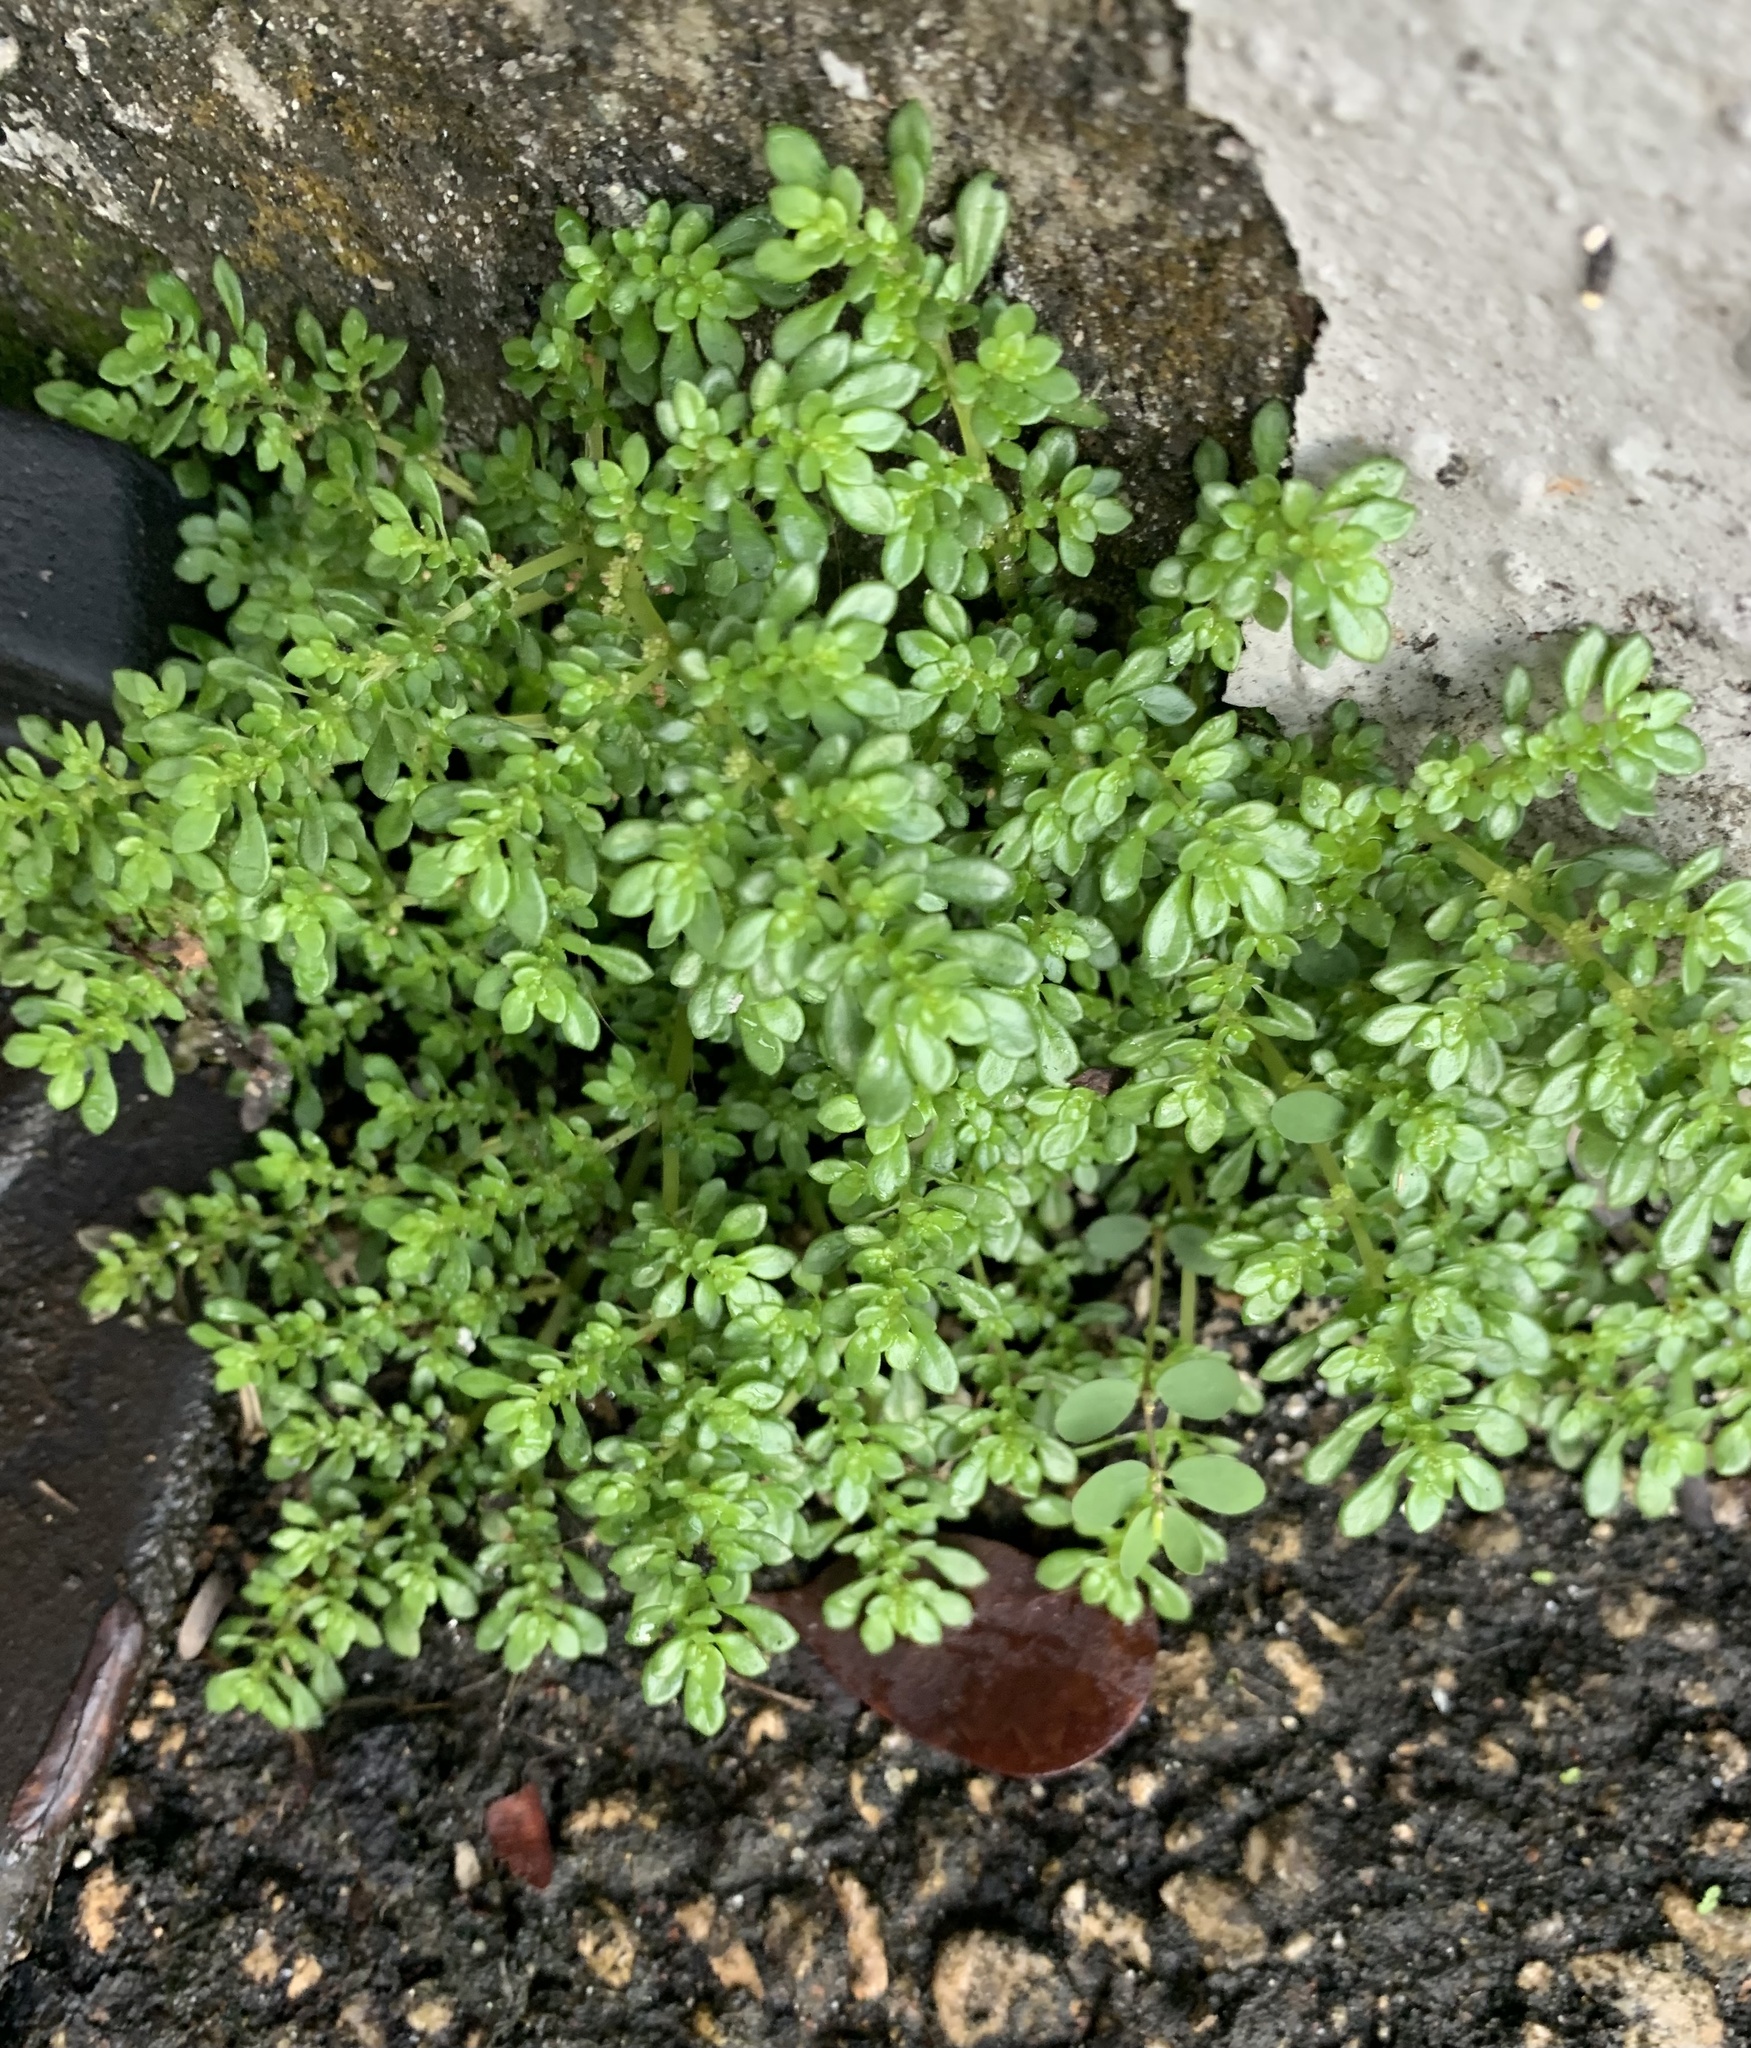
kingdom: Plantae
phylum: Tracheophyta
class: Magnoliopsida
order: Rosales
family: Urticaceae
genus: Pilea
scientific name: Pilea microphylla
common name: Artillery-plant
